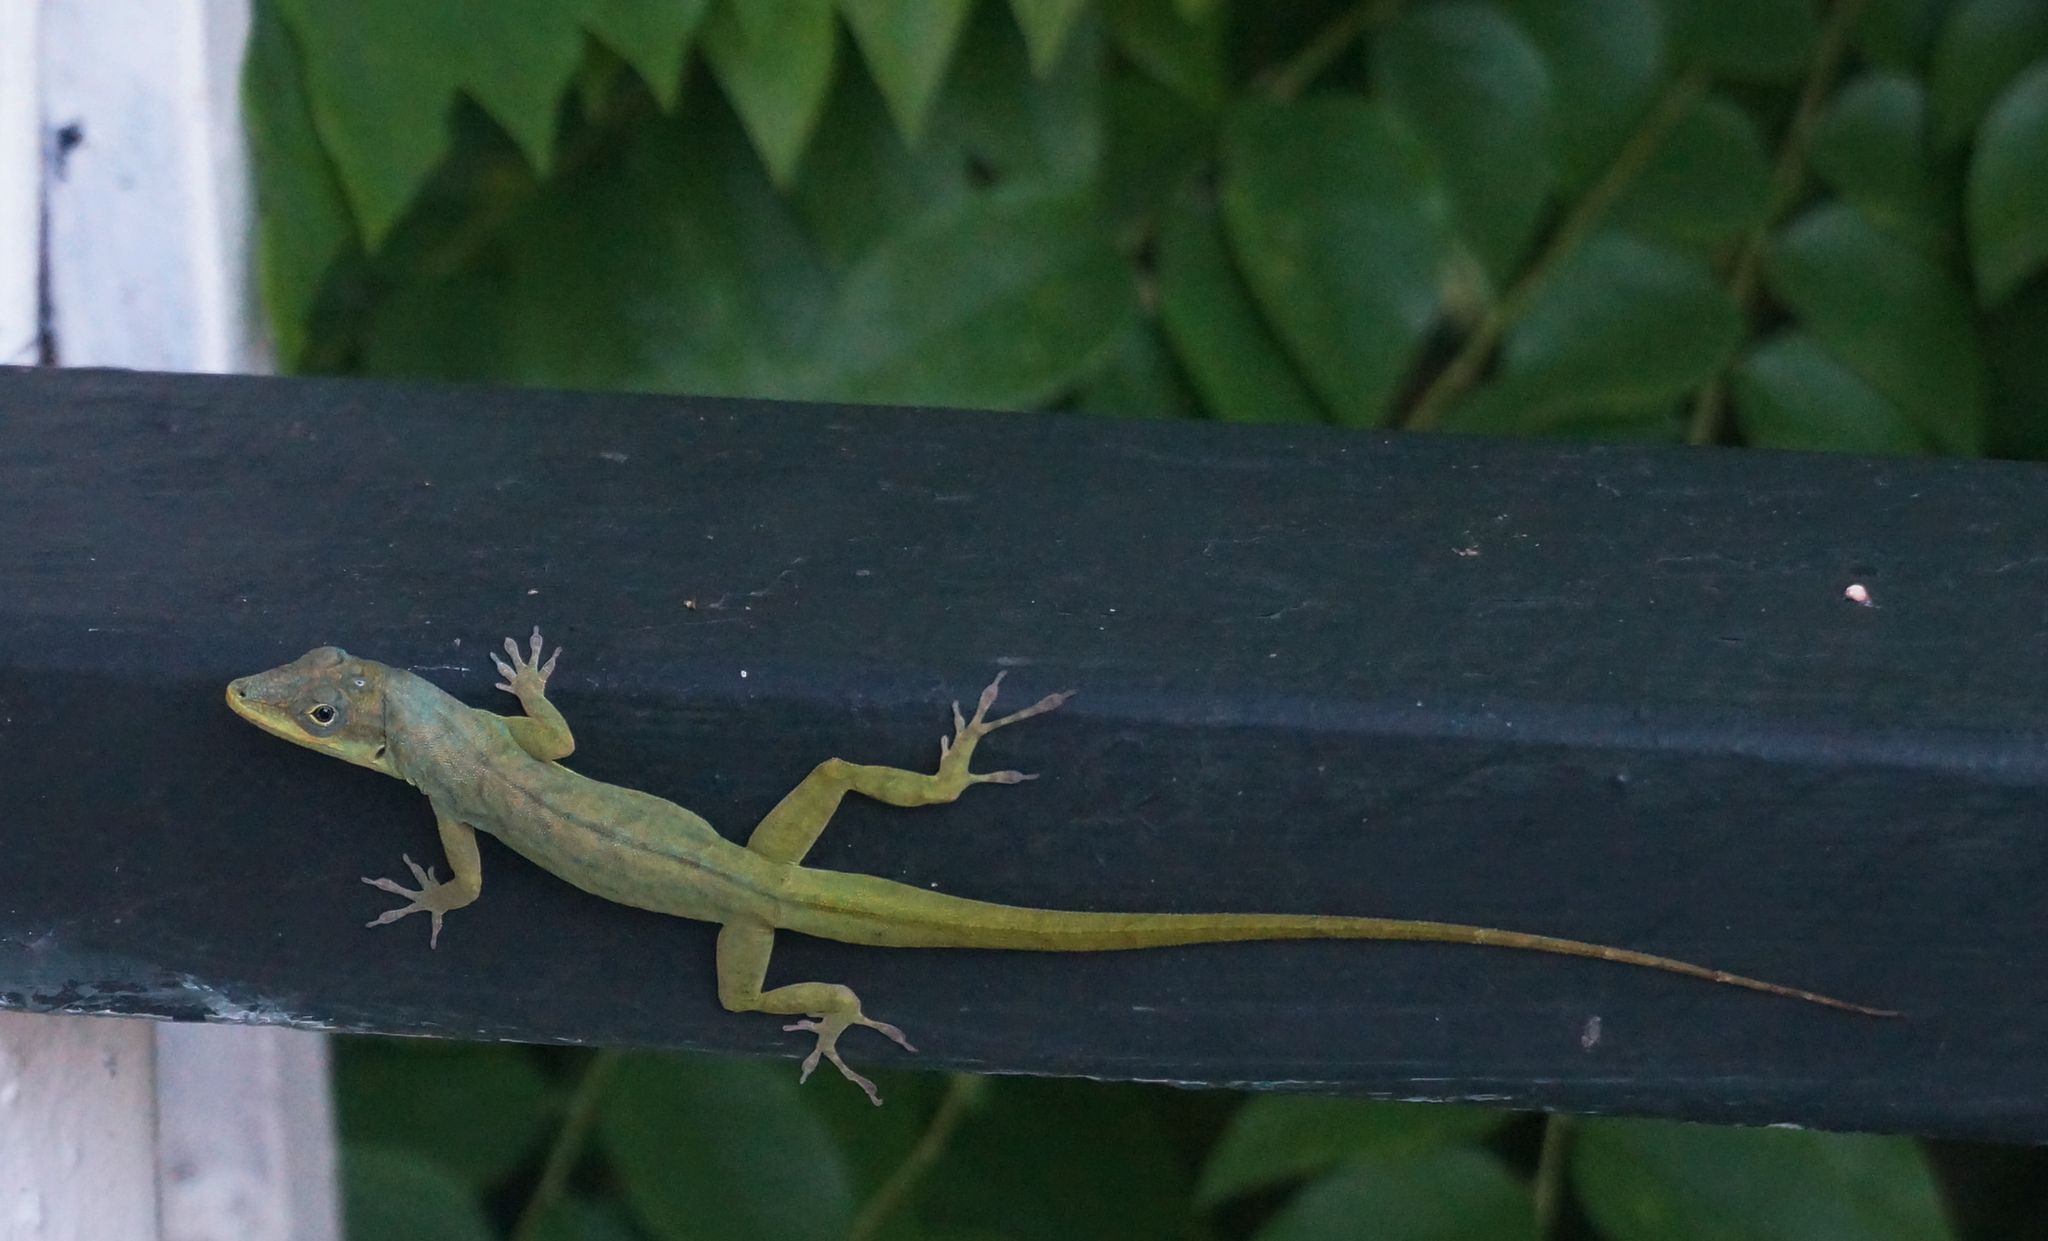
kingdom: Animalia
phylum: Chordata
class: Squamata
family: Dactyloidae
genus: Anolis
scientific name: Anolis aeneus
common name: Bronze anole
